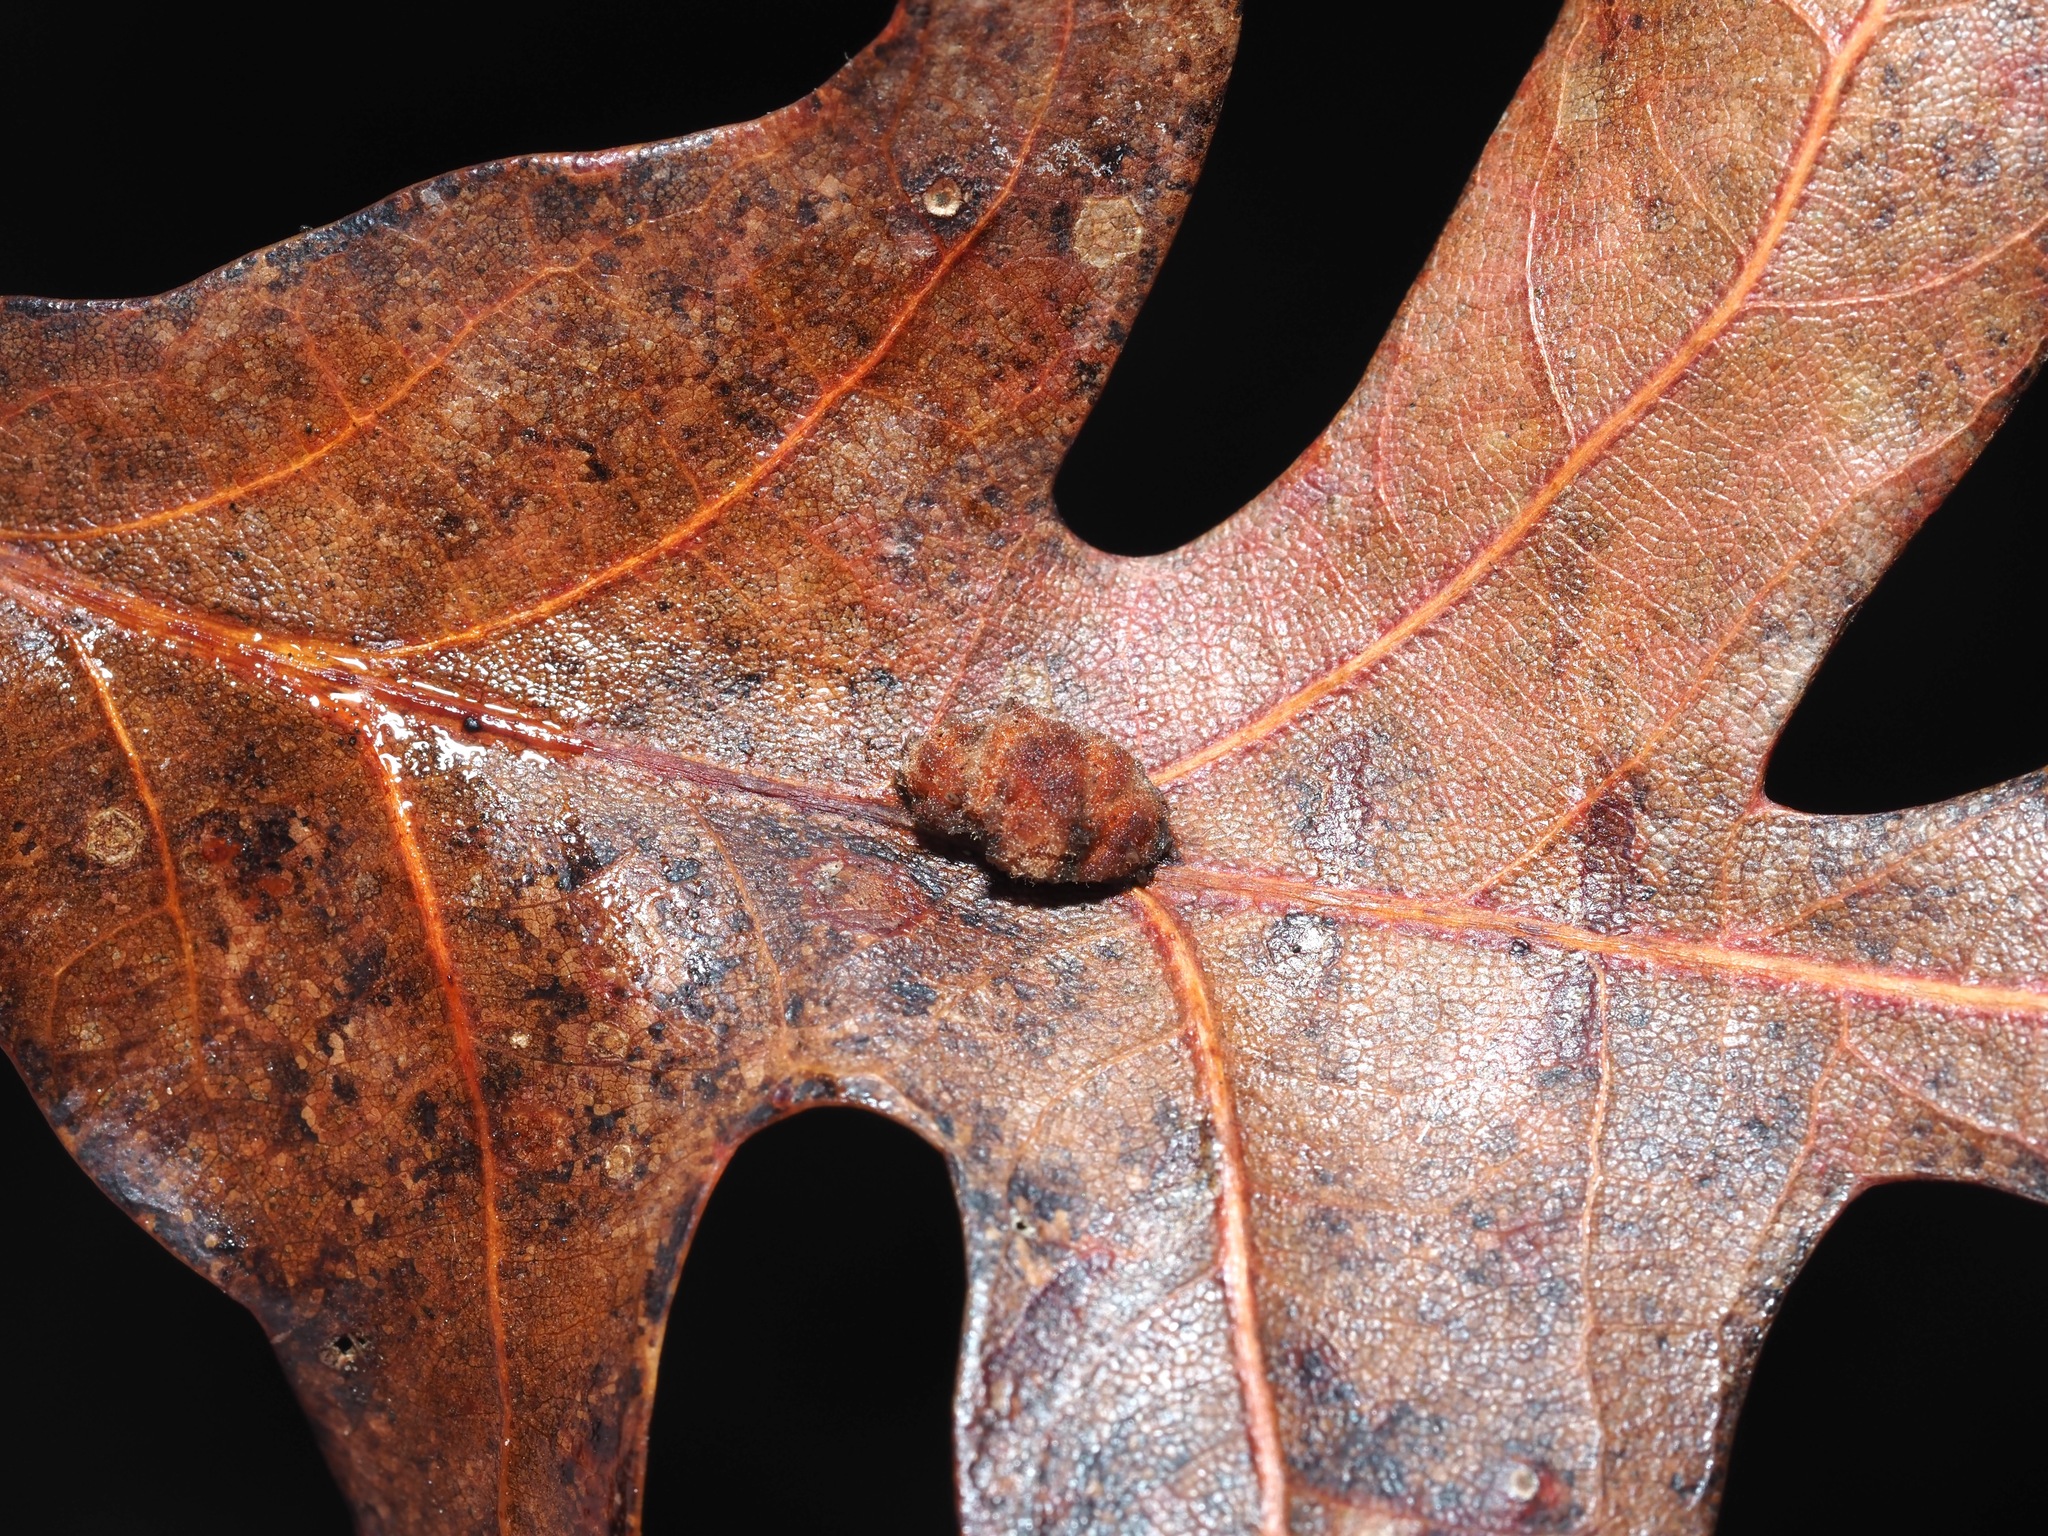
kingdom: Animalia
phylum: Arthropoda
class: Insecta
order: Hymenoptera
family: Cynipidae
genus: Andricus
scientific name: Andricus quercusflocci
